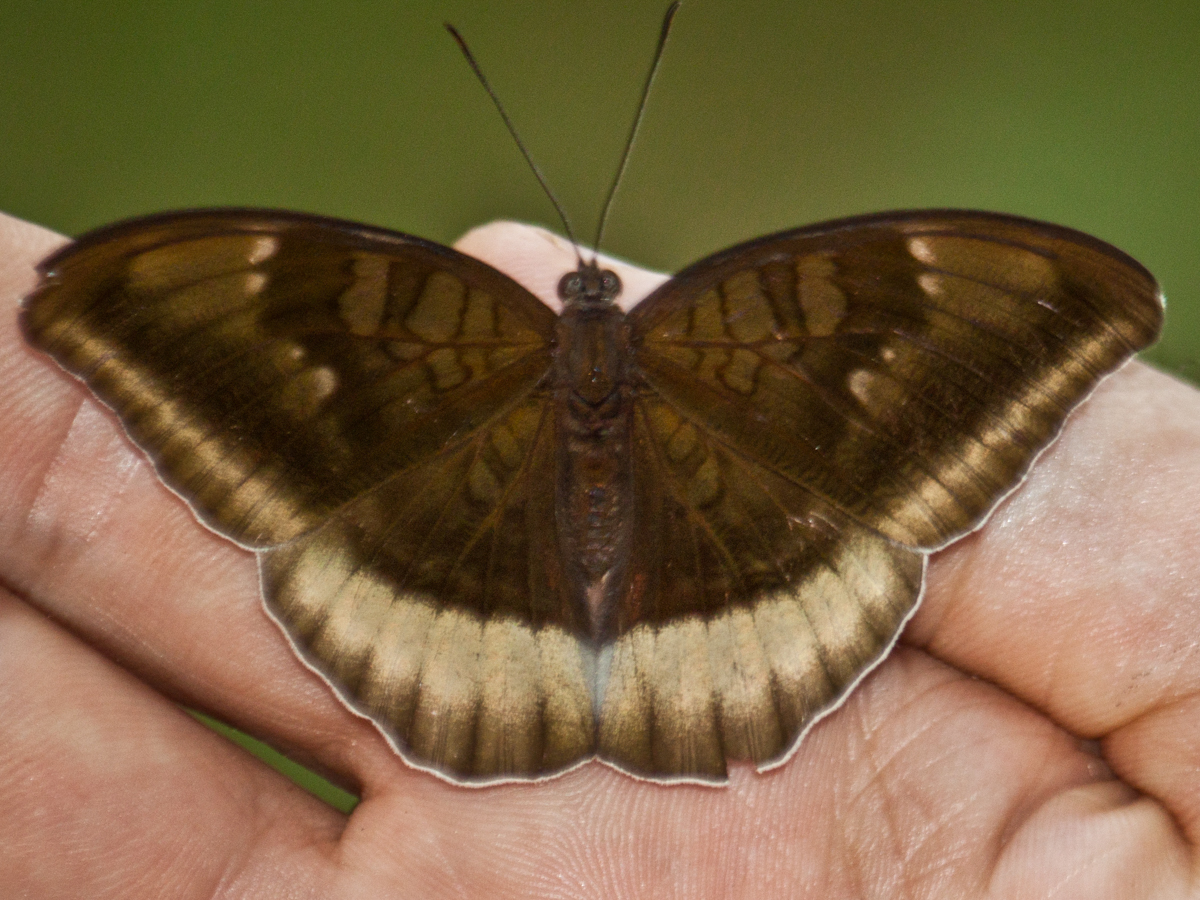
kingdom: Animalia
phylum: Arthropoda
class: Insecta
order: Lepidoptera
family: Nymphalidae
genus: Tanaecia
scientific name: Tanaecia lepidea
